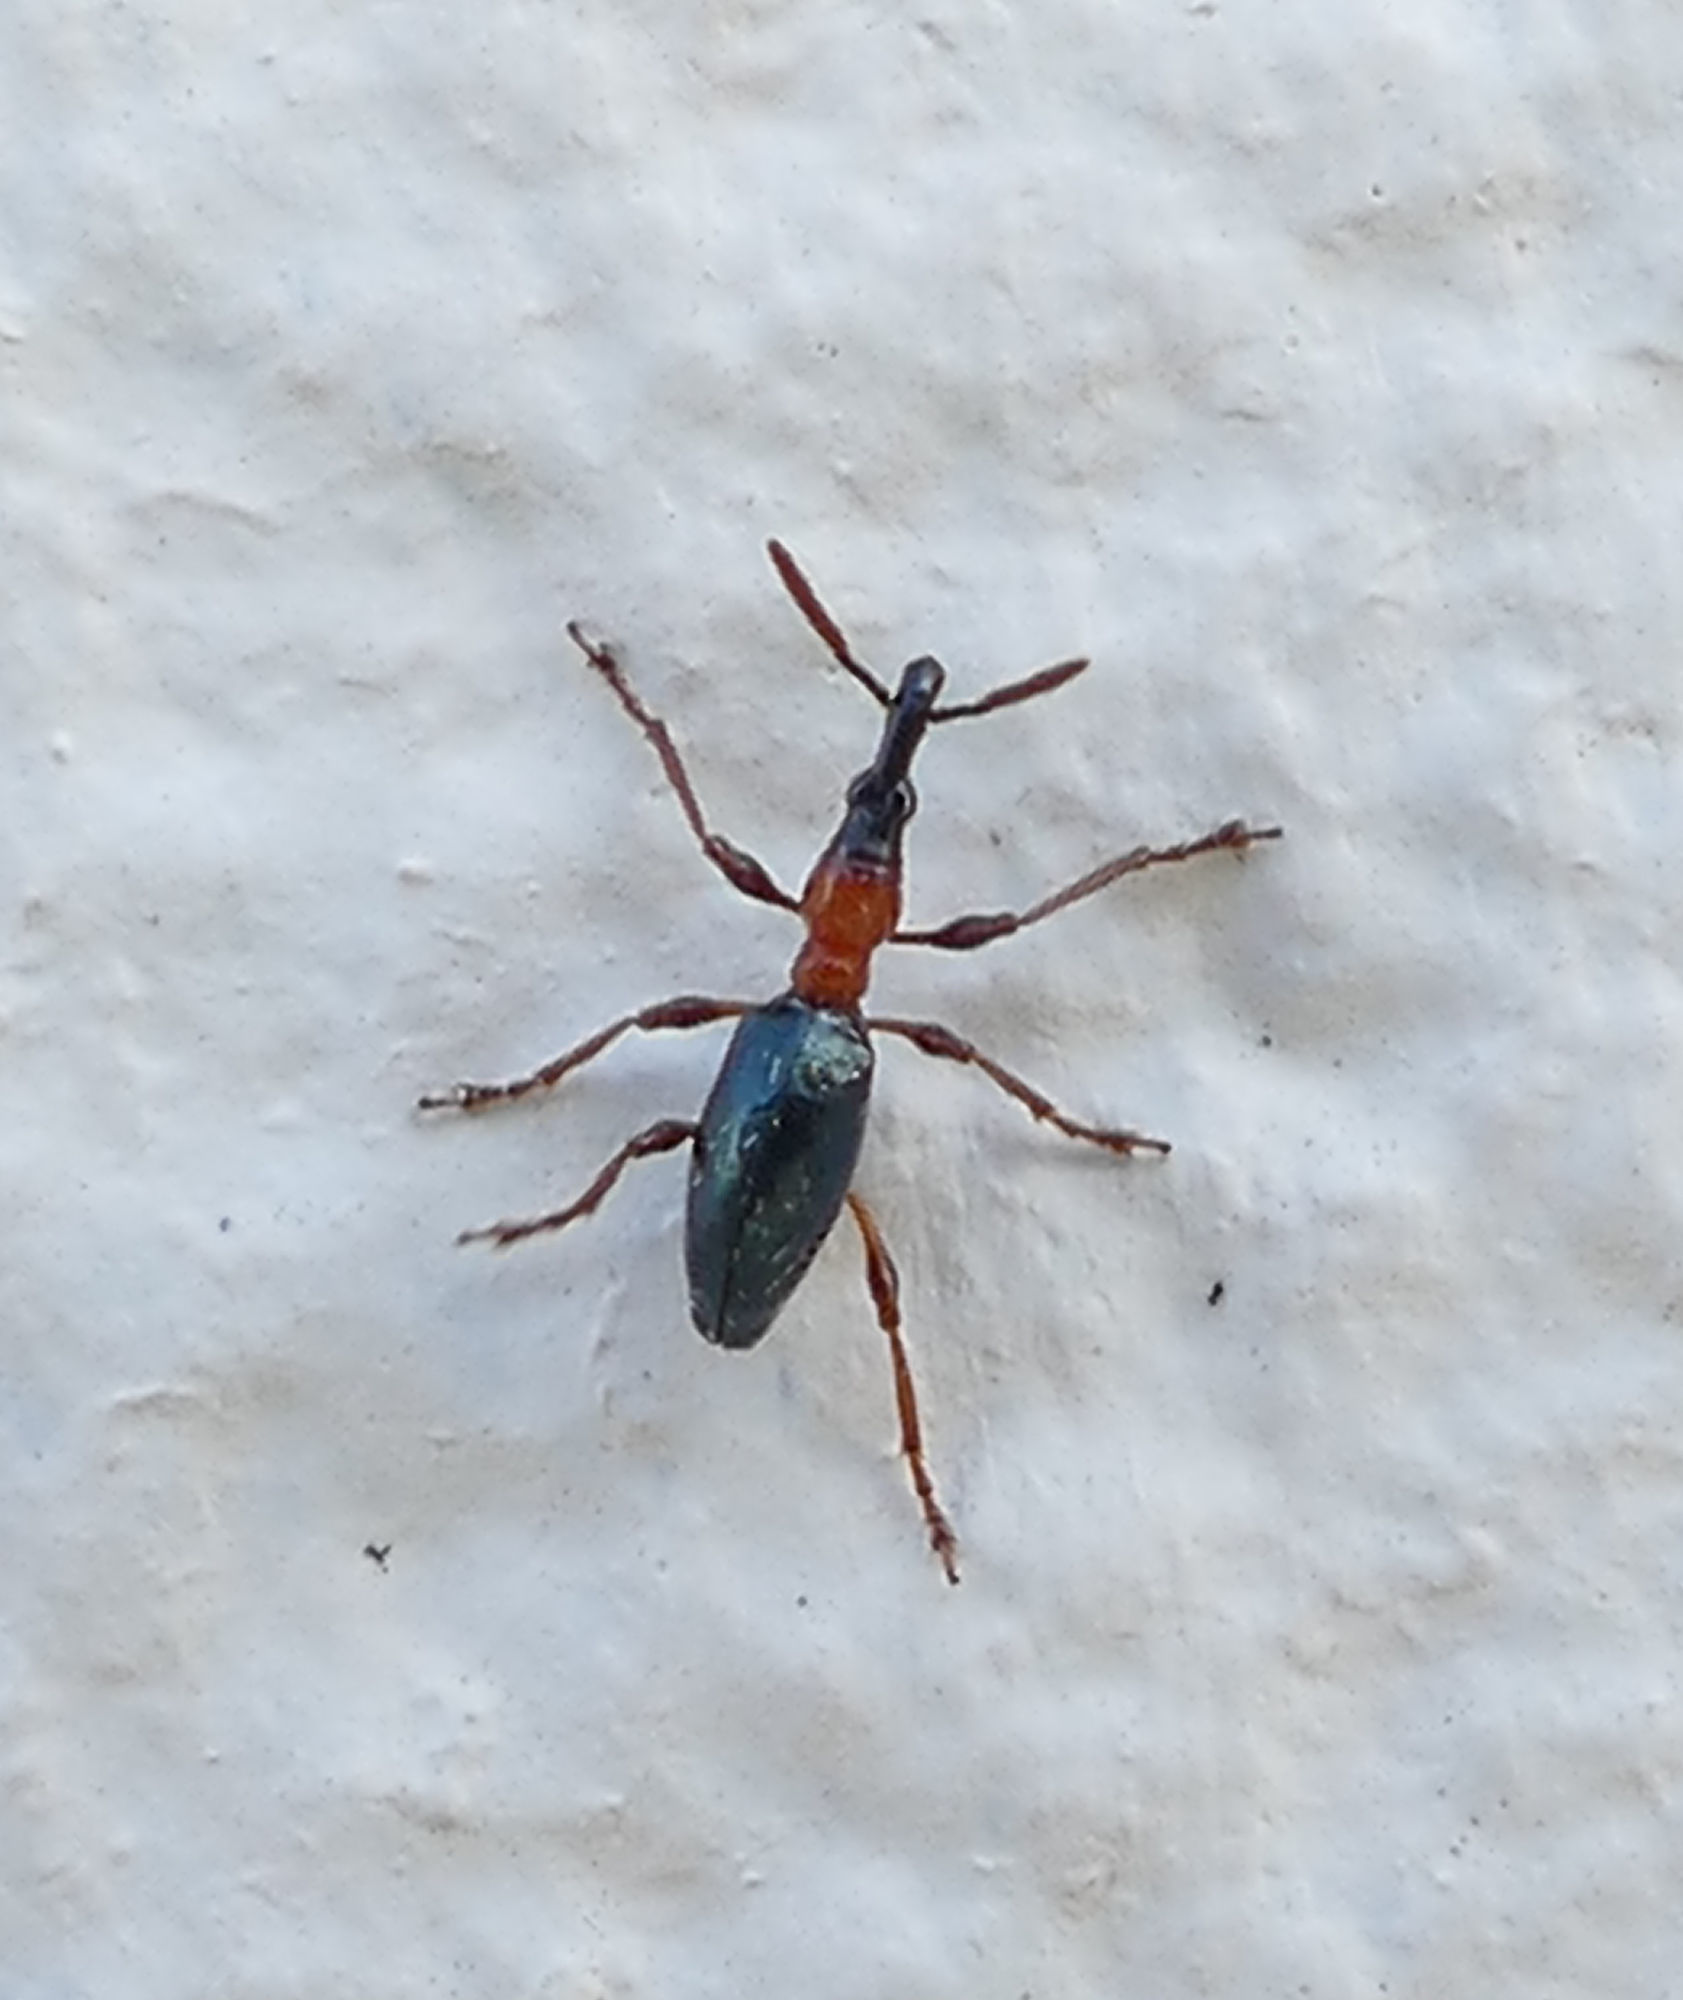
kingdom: Animalia
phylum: Arthropoda
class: Insecta
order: Coleoptera
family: Brentidae
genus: Cylas
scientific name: Cylas formicarius
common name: Sweetpotato weevil
